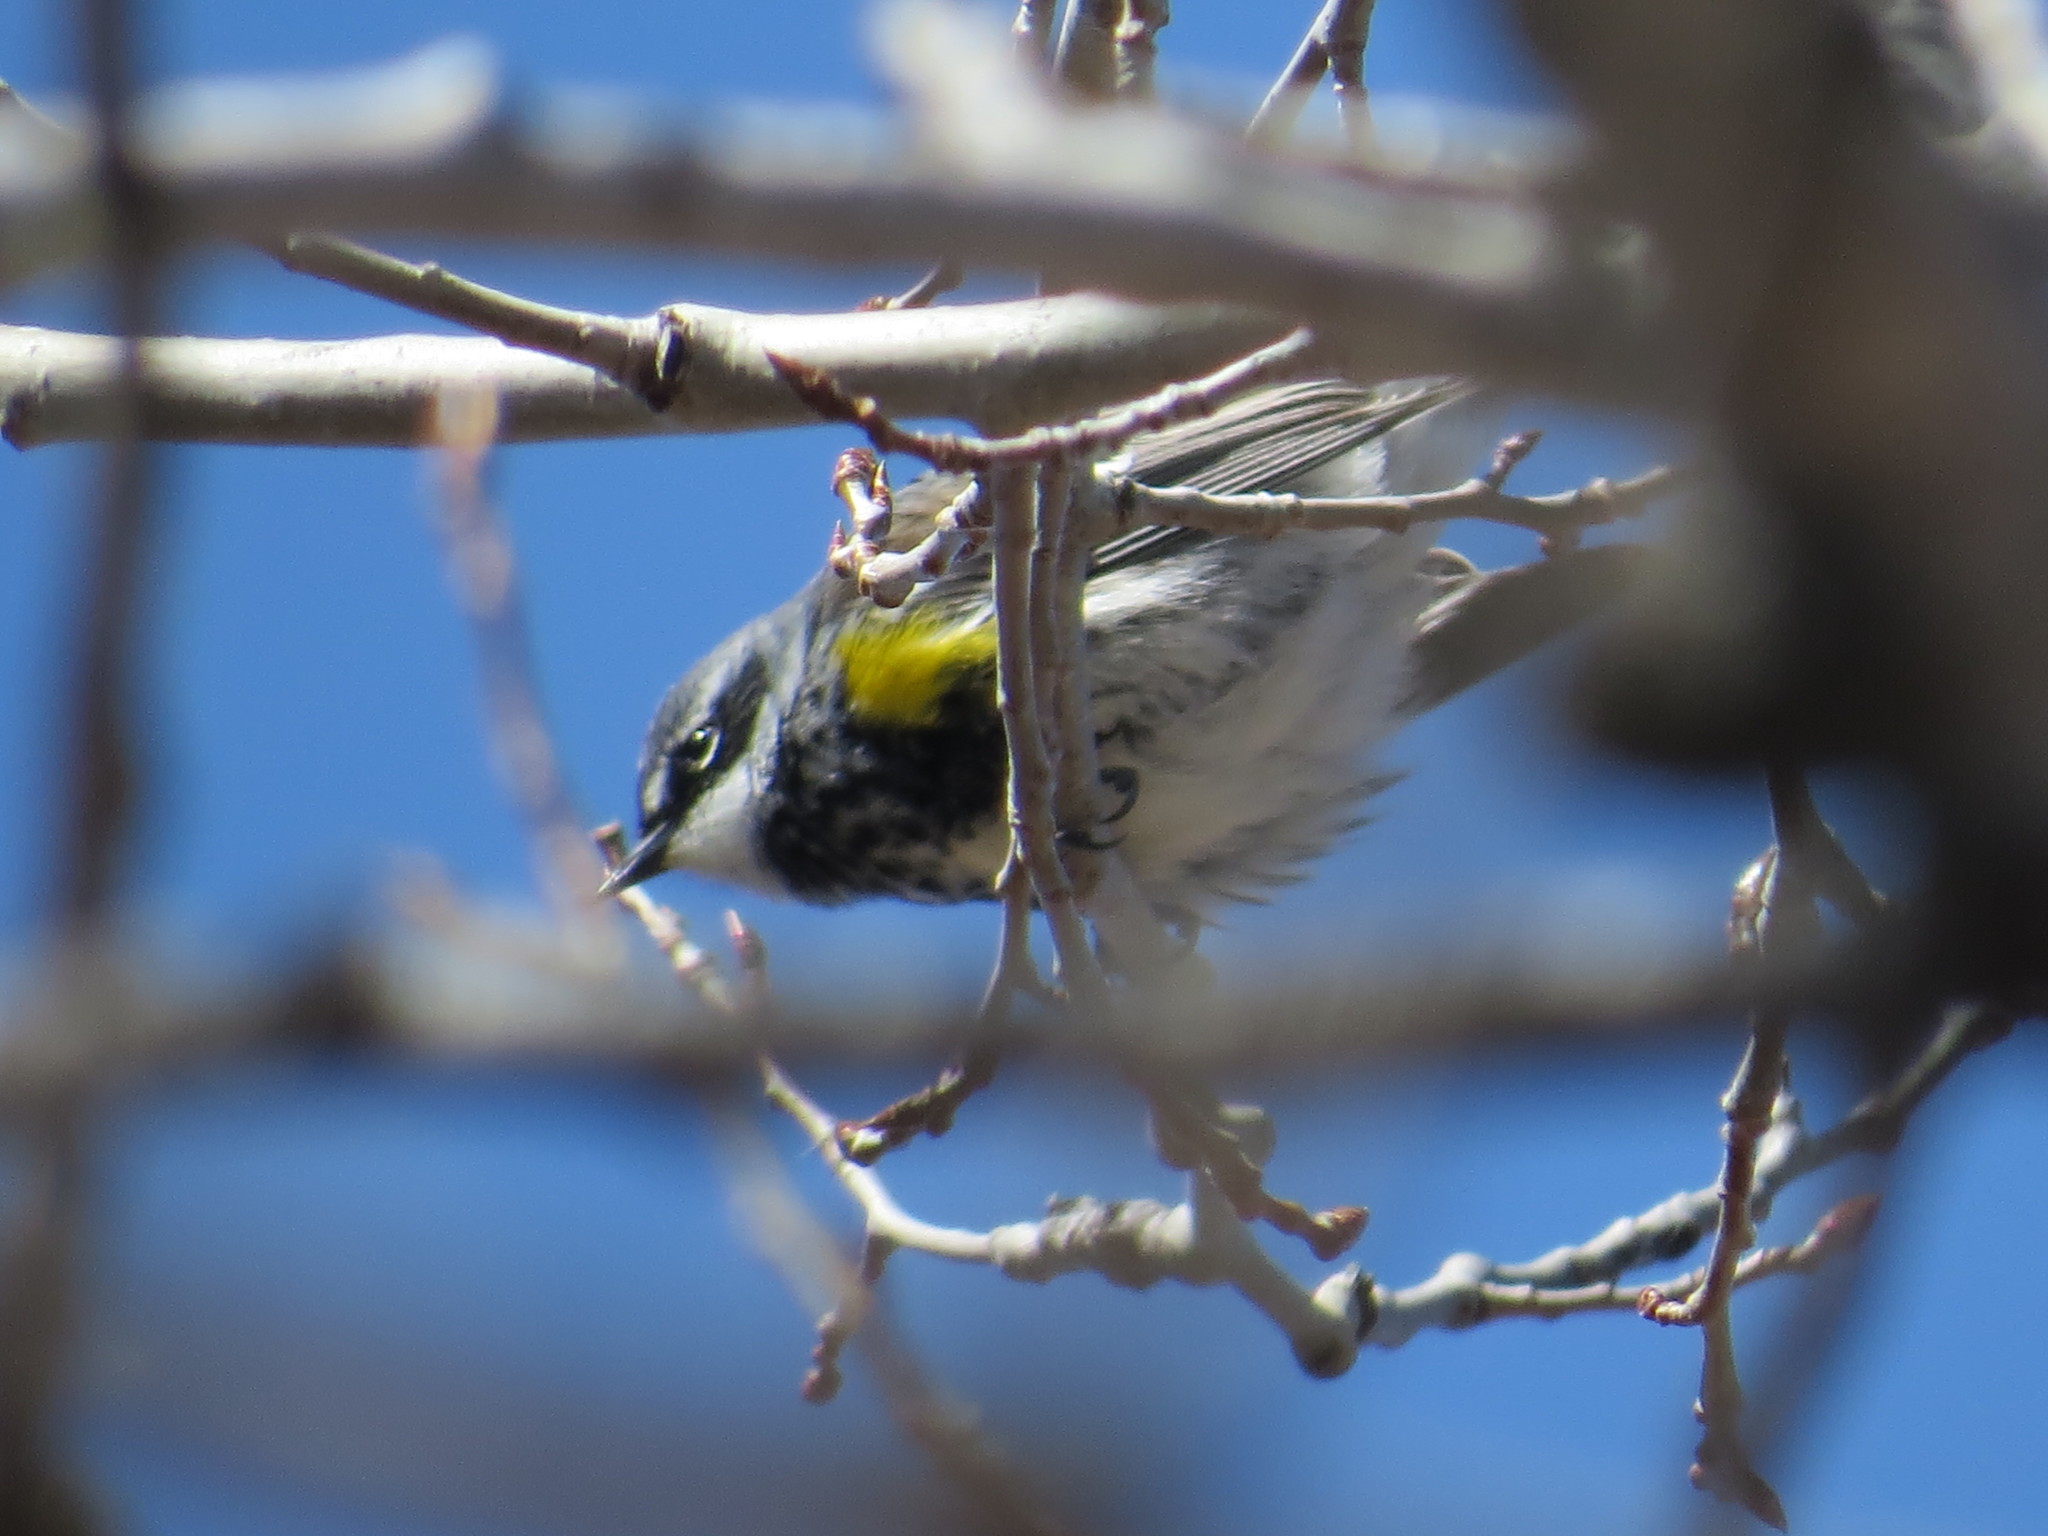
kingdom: Animalia
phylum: Chordata
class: Aves
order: Passeriformes
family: Parulidae
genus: Setophaga
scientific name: Setophaga coronata
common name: Myrtle warbler
